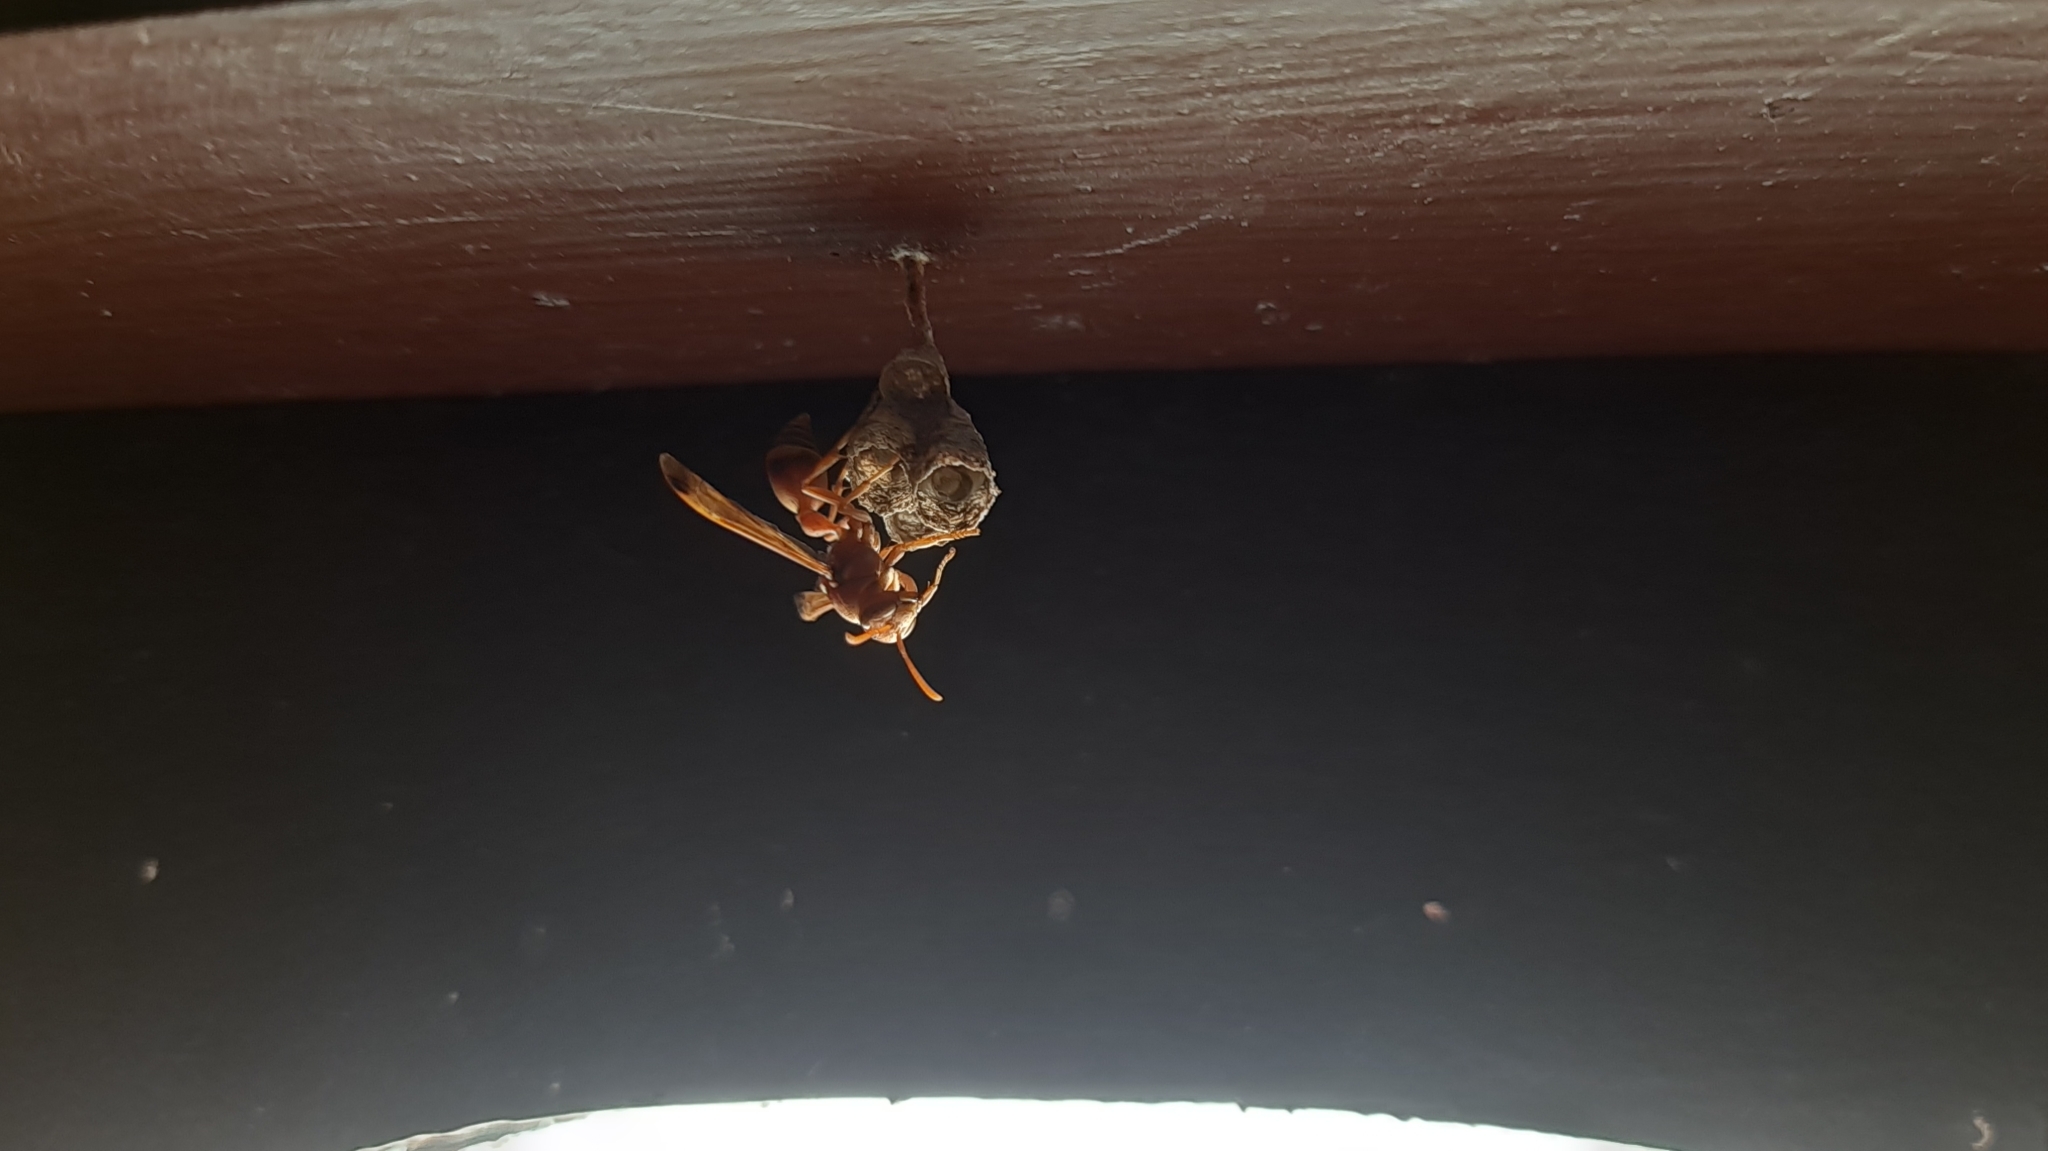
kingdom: Animalia
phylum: Arthropoda
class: Insecta
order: Hymenoptera
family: Vespidae
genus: Ropalidia
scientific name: Ropalidia marginata
